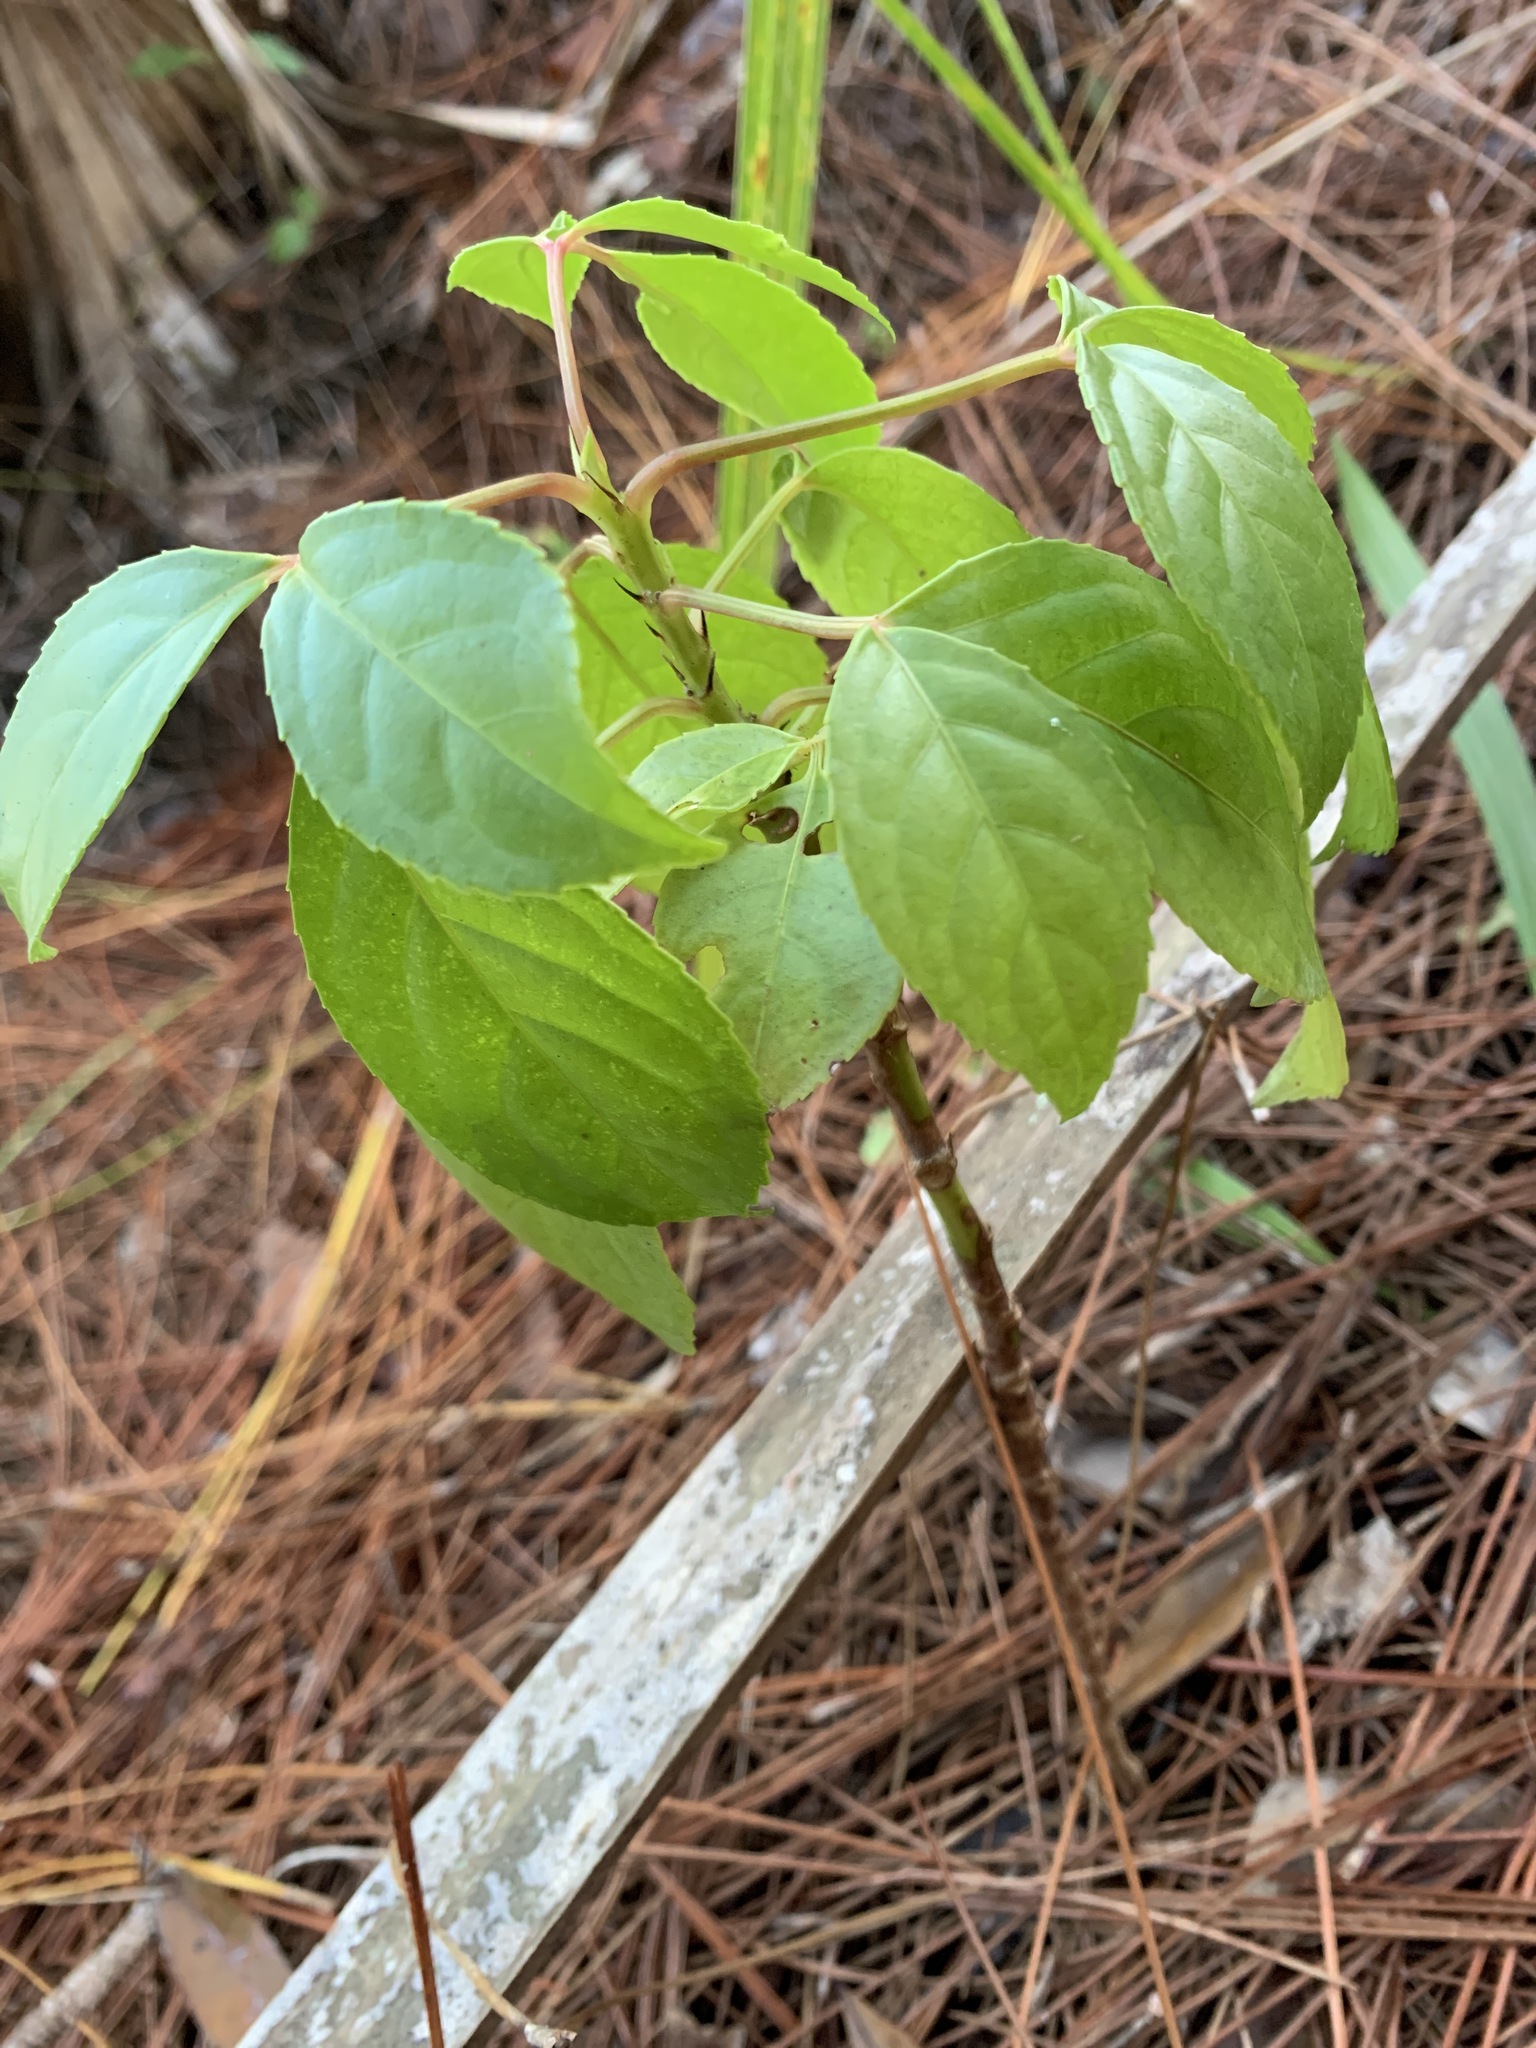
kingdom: Plantae
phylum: Tracheophyta
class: Magnoliopsida
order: Malpighiales
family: Phyllanthaceae
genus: Bischofia
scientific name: Bischofia javanica
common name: Javanese bishopwood
